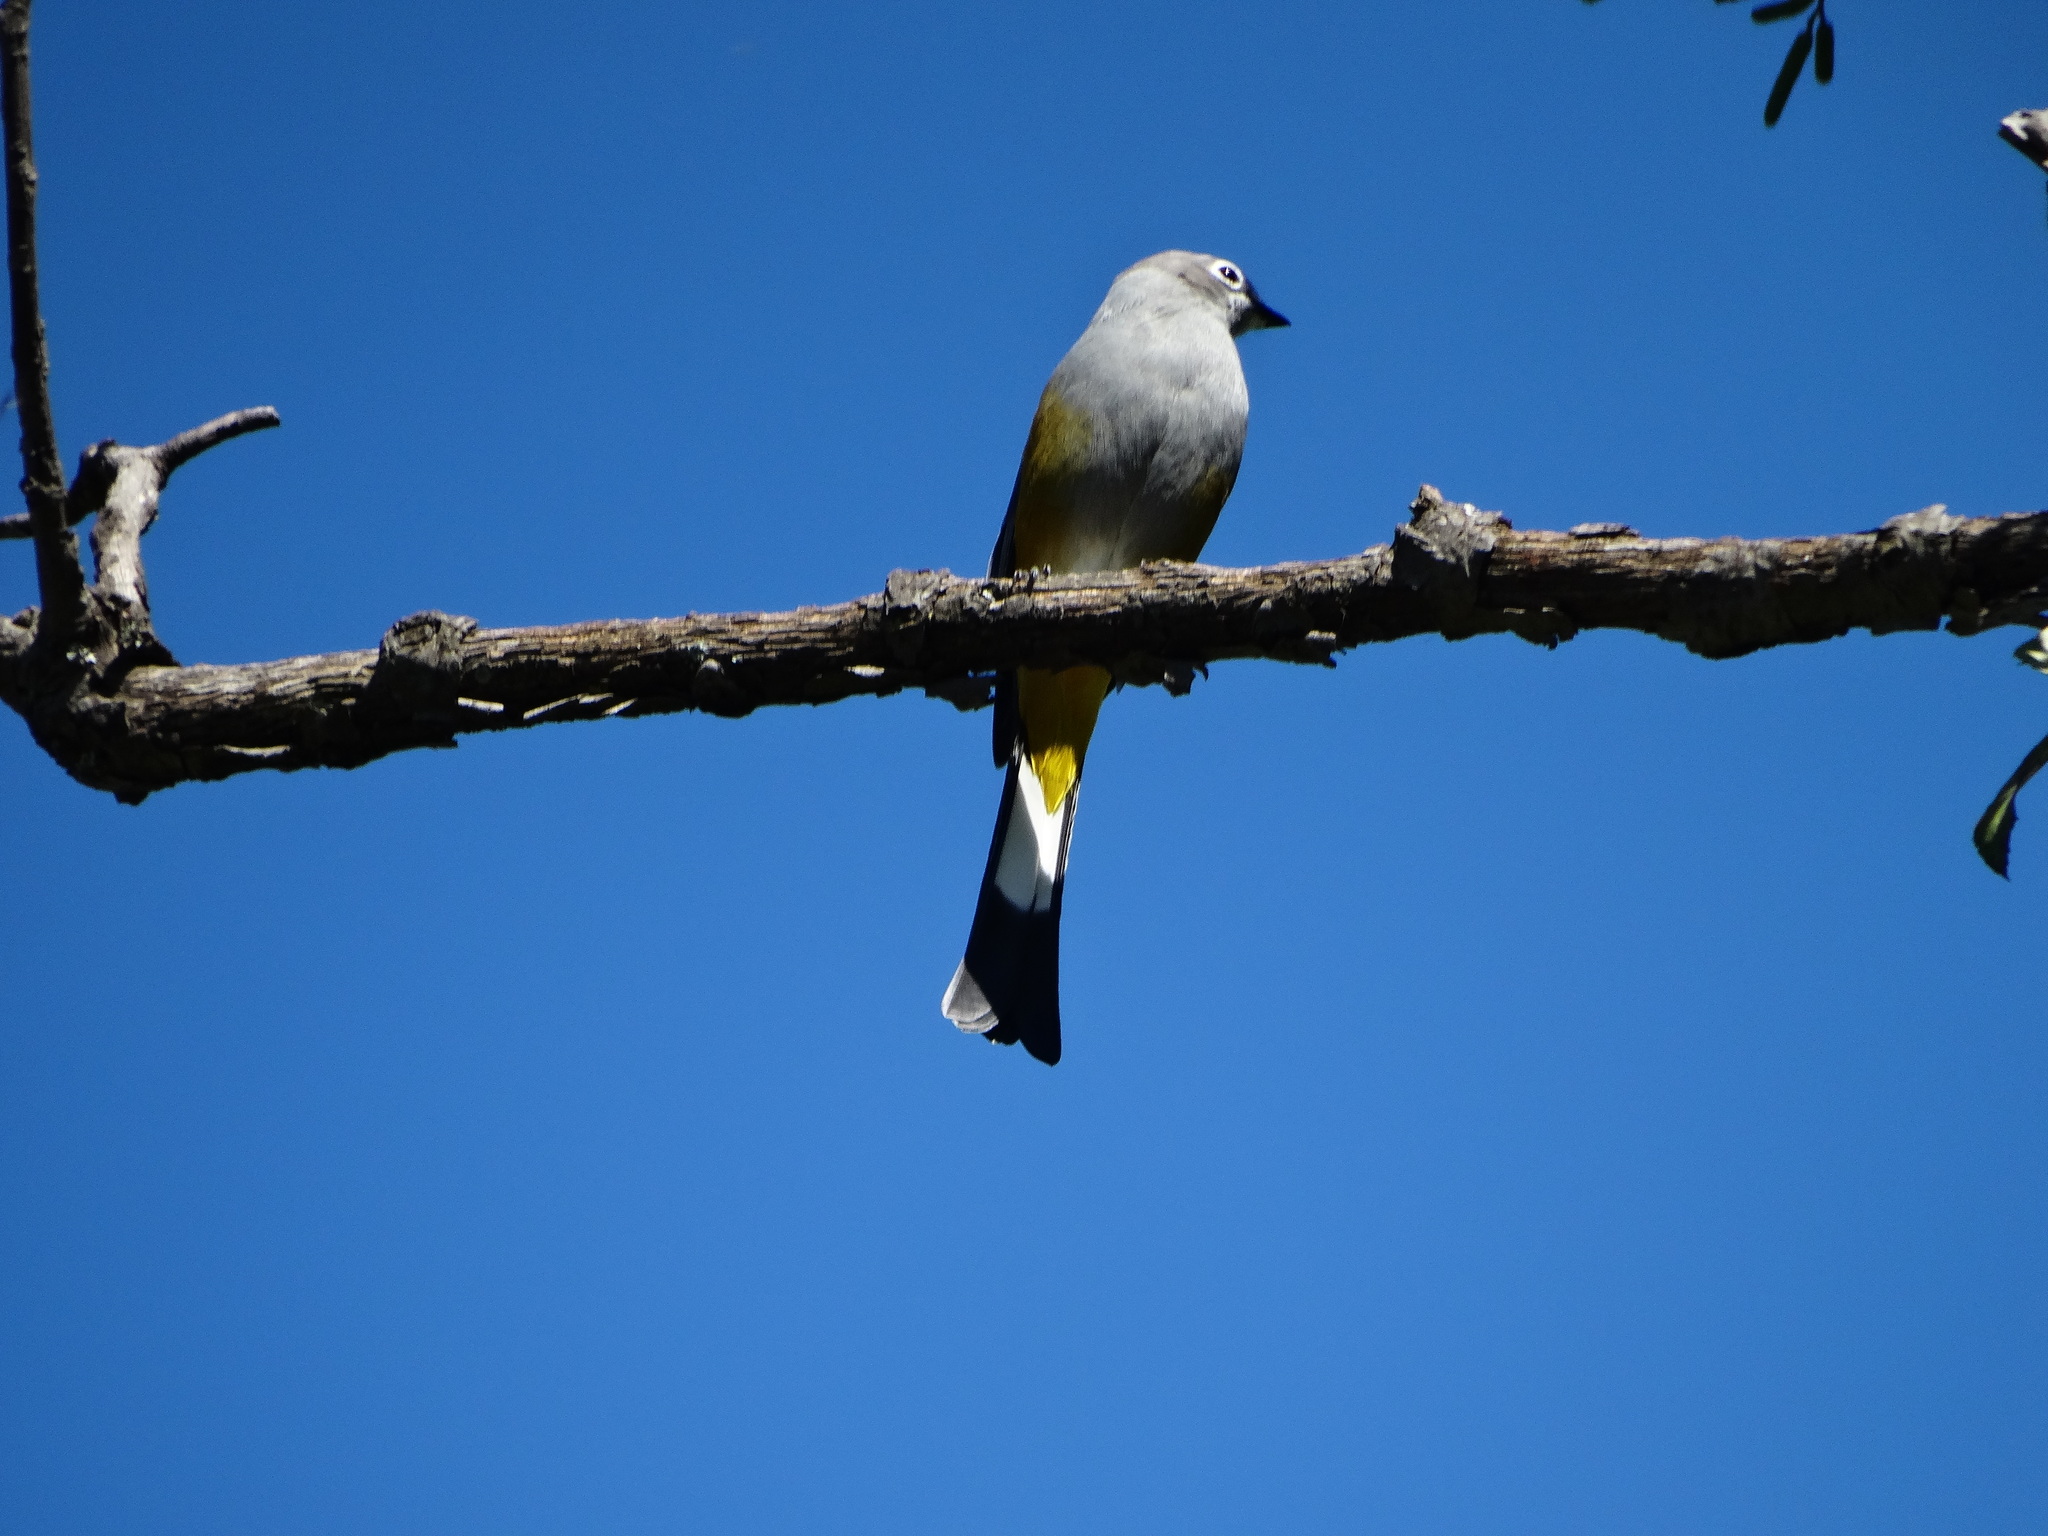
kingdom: Animalia
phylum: Chordata
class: Aves
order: Passeriformes
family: Ptilogonatidae
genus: Ptilogonys
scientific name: Ptilogonys cinereus
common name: Gray silky-flycatcher
